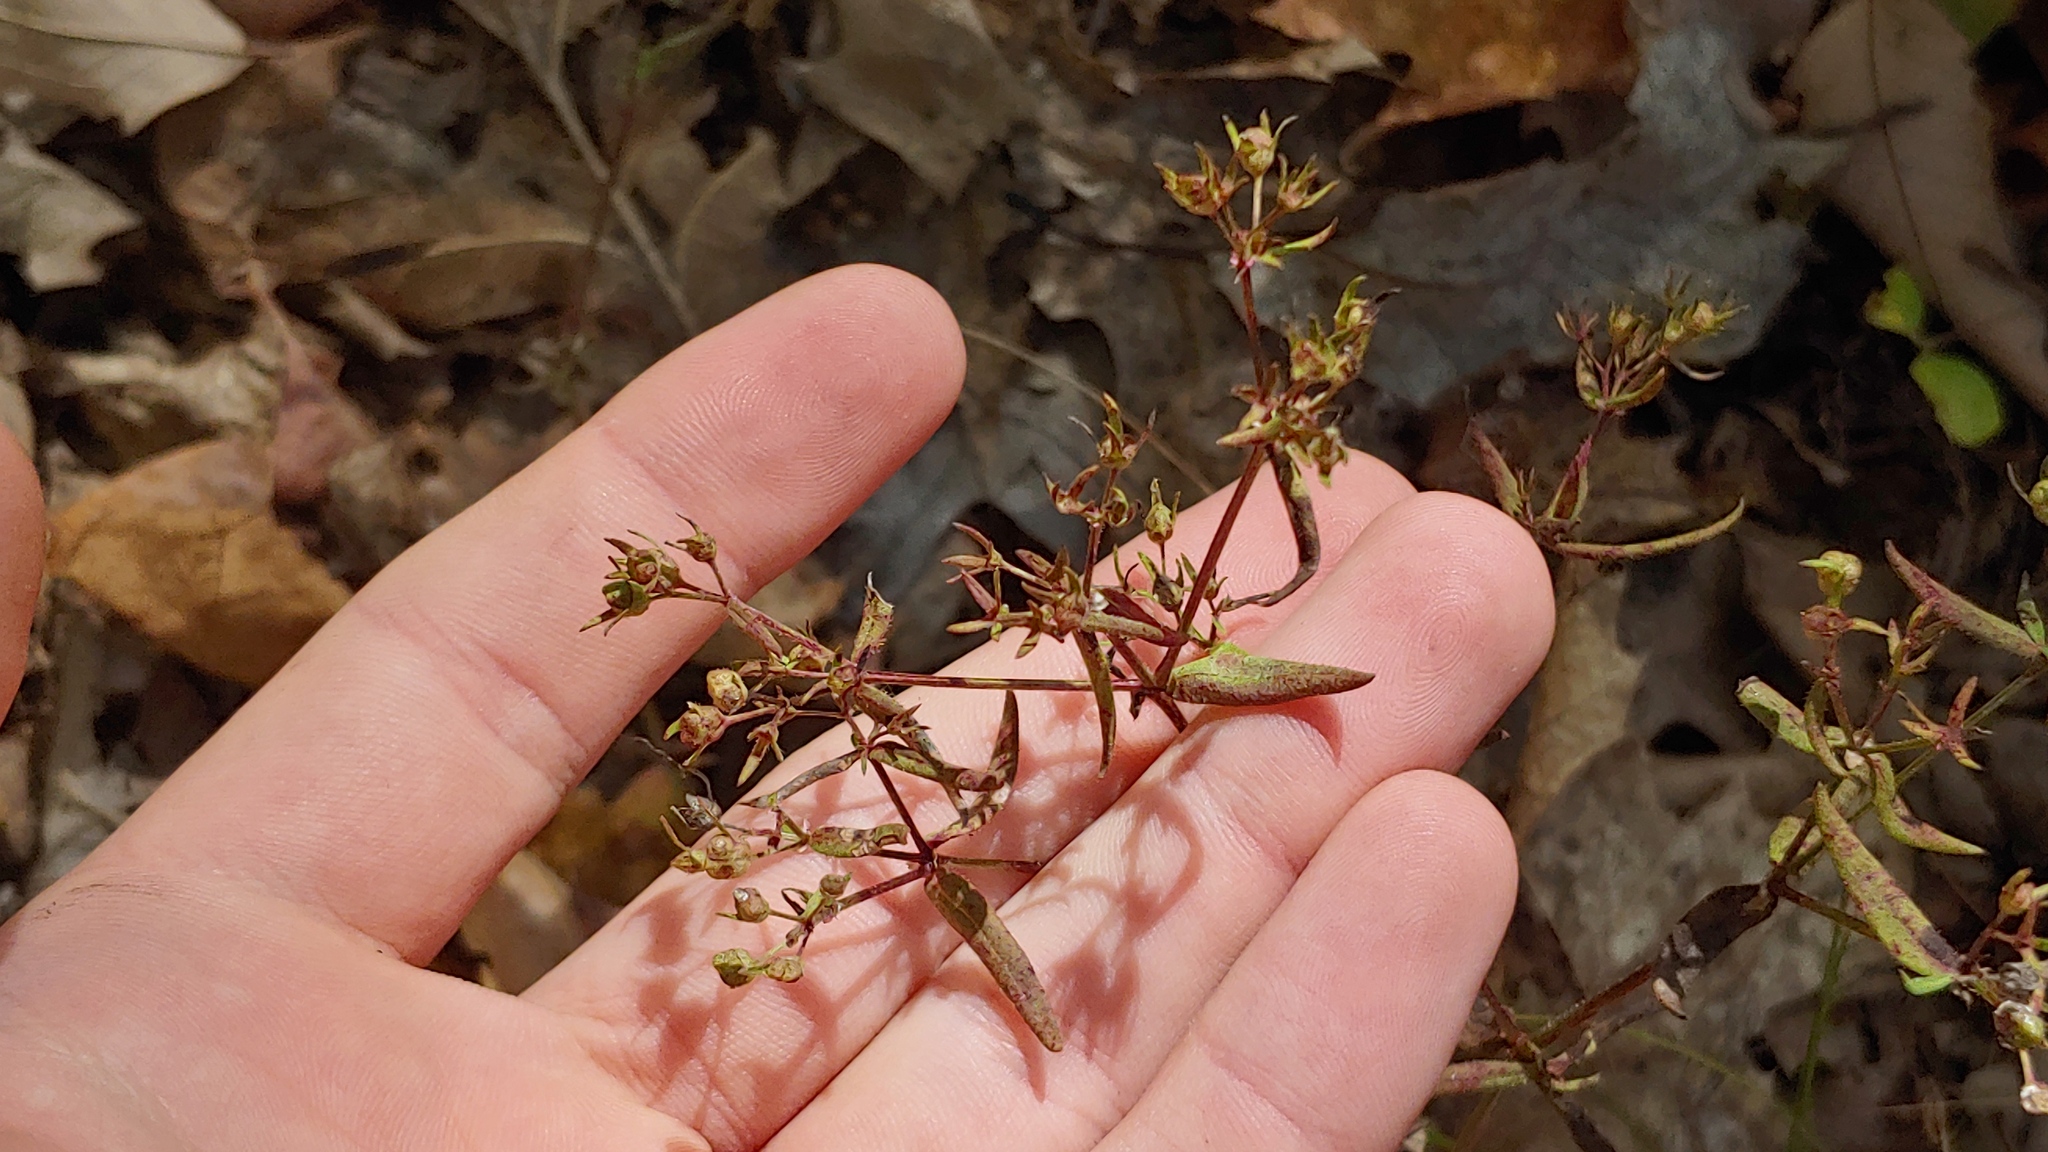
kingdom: Plantae
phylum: Tracheophyta
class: Magnoliopsida
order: Gentianales
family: Rubiaceae
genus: Houstonia
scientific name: Houstonia longifolia
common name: Long-leaved bluets
